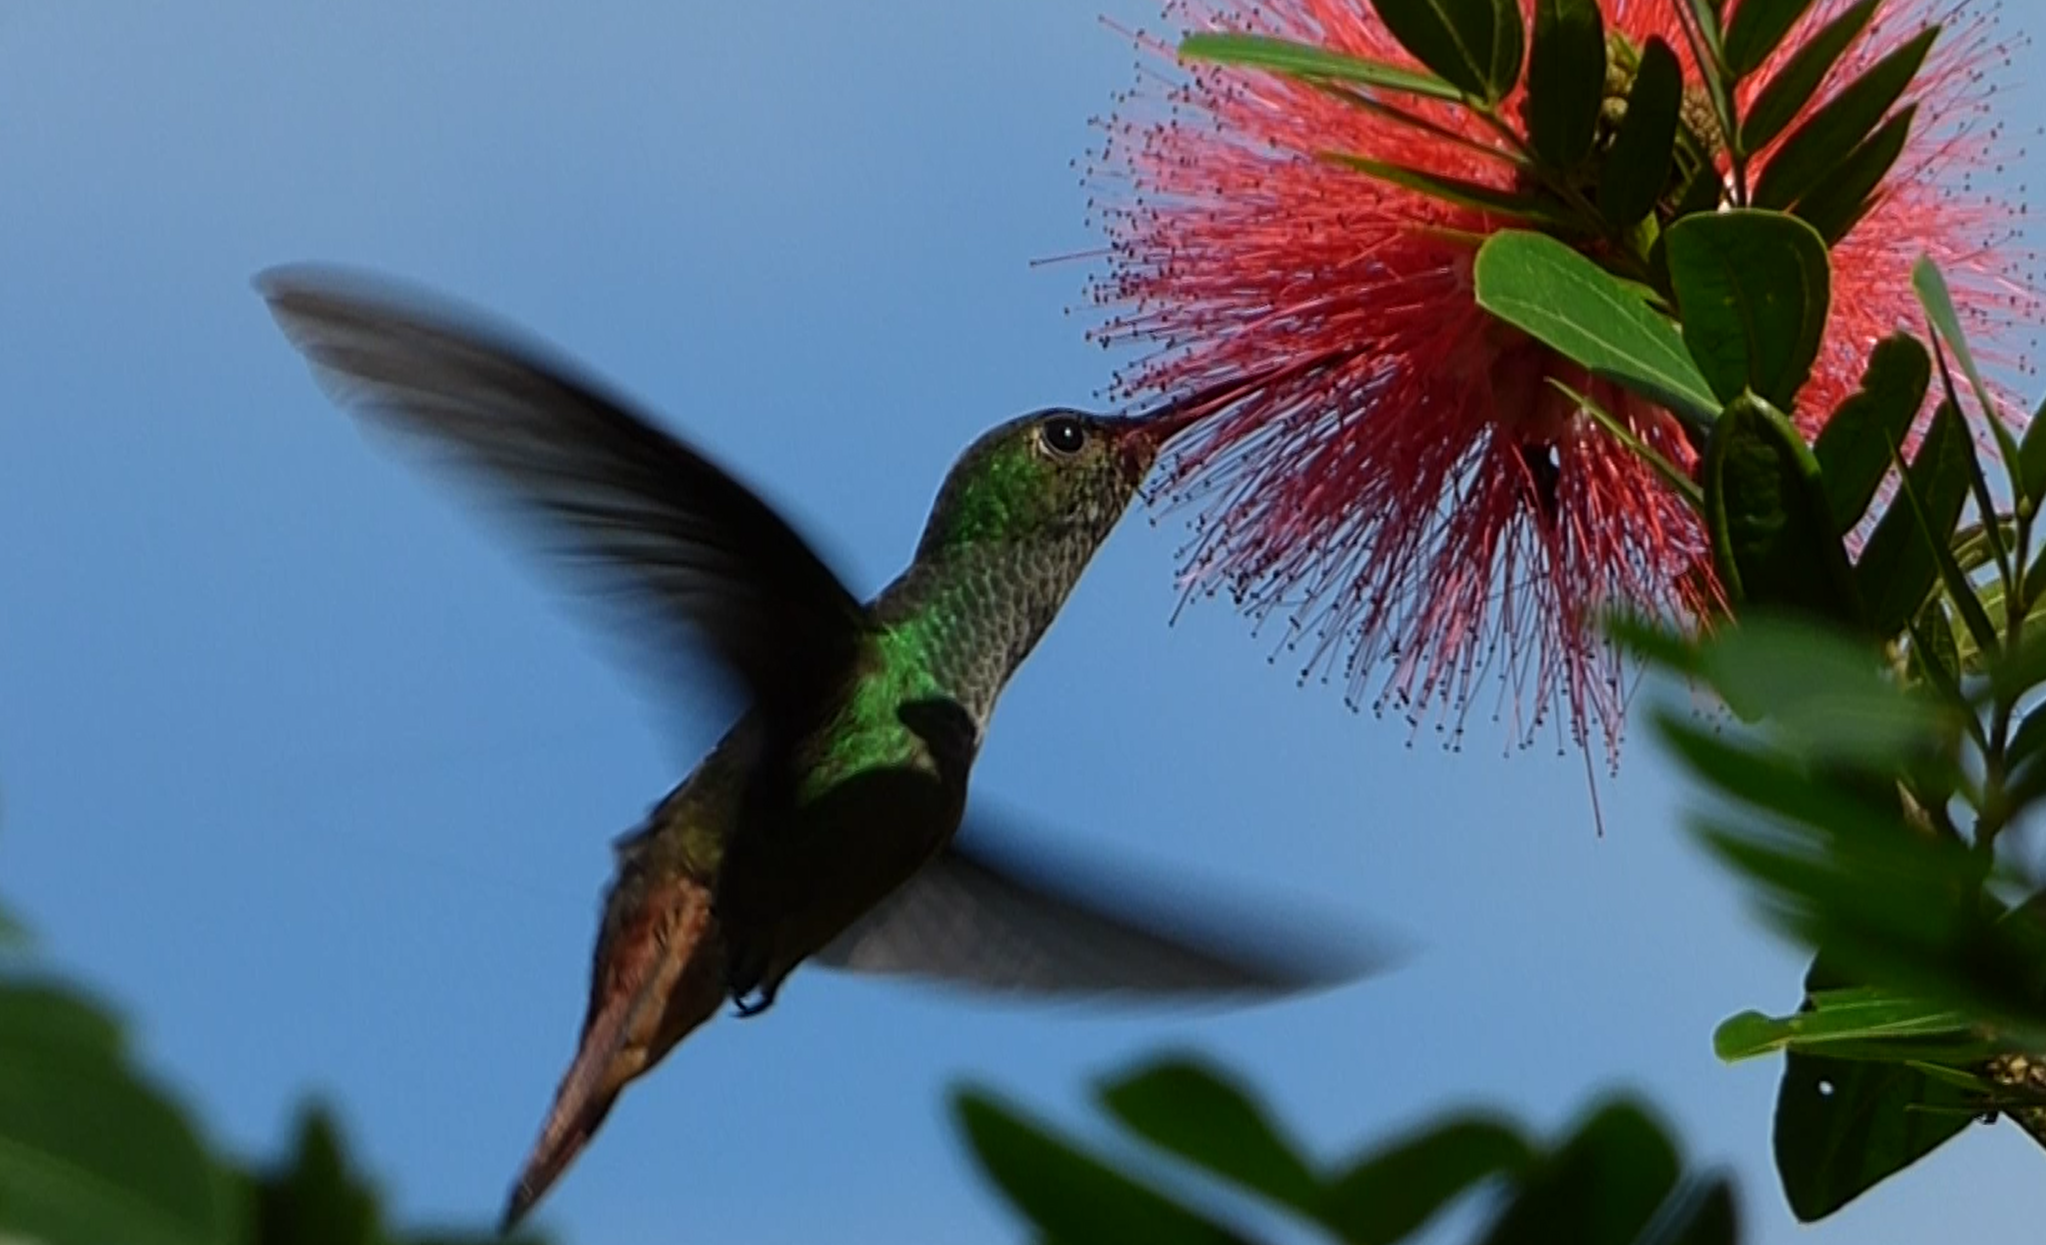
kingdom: Animalia
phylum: Chordata
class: Aves
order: Apodiformes
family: Trochilidae
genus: Amazilia
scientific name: Amazilia tzacatl
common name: Rufous-tailed hummingbird
